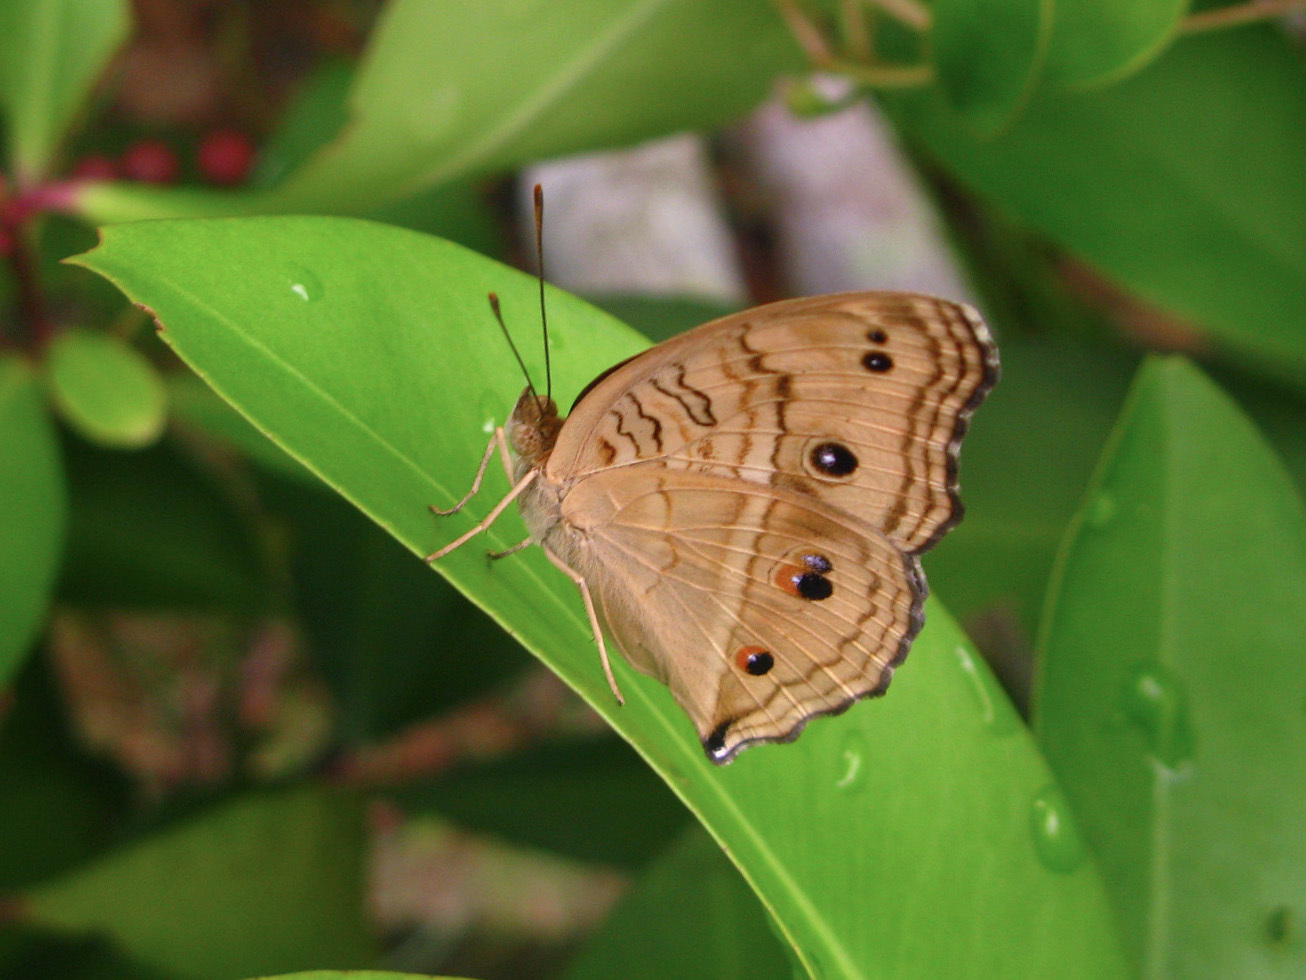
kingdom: Animalia
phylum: Arthropoda
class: Insecta
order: Lepidoptera
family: Nymphalidae
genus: Junonia
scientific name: Junonia almana
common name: Peacock pansy
